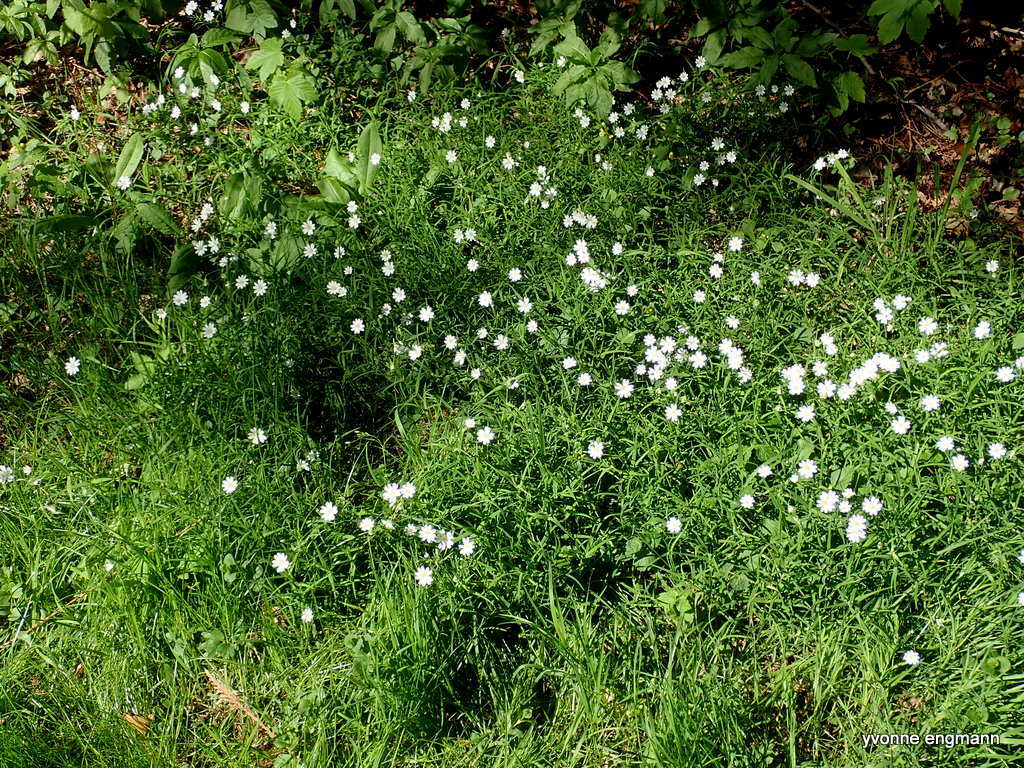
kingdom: Plantae
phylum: Tracheophyta
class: Magnoliopsida
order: Caryophyllales
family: Caryophyllaceae
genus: Rabelera
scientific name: Rabelera holostea
